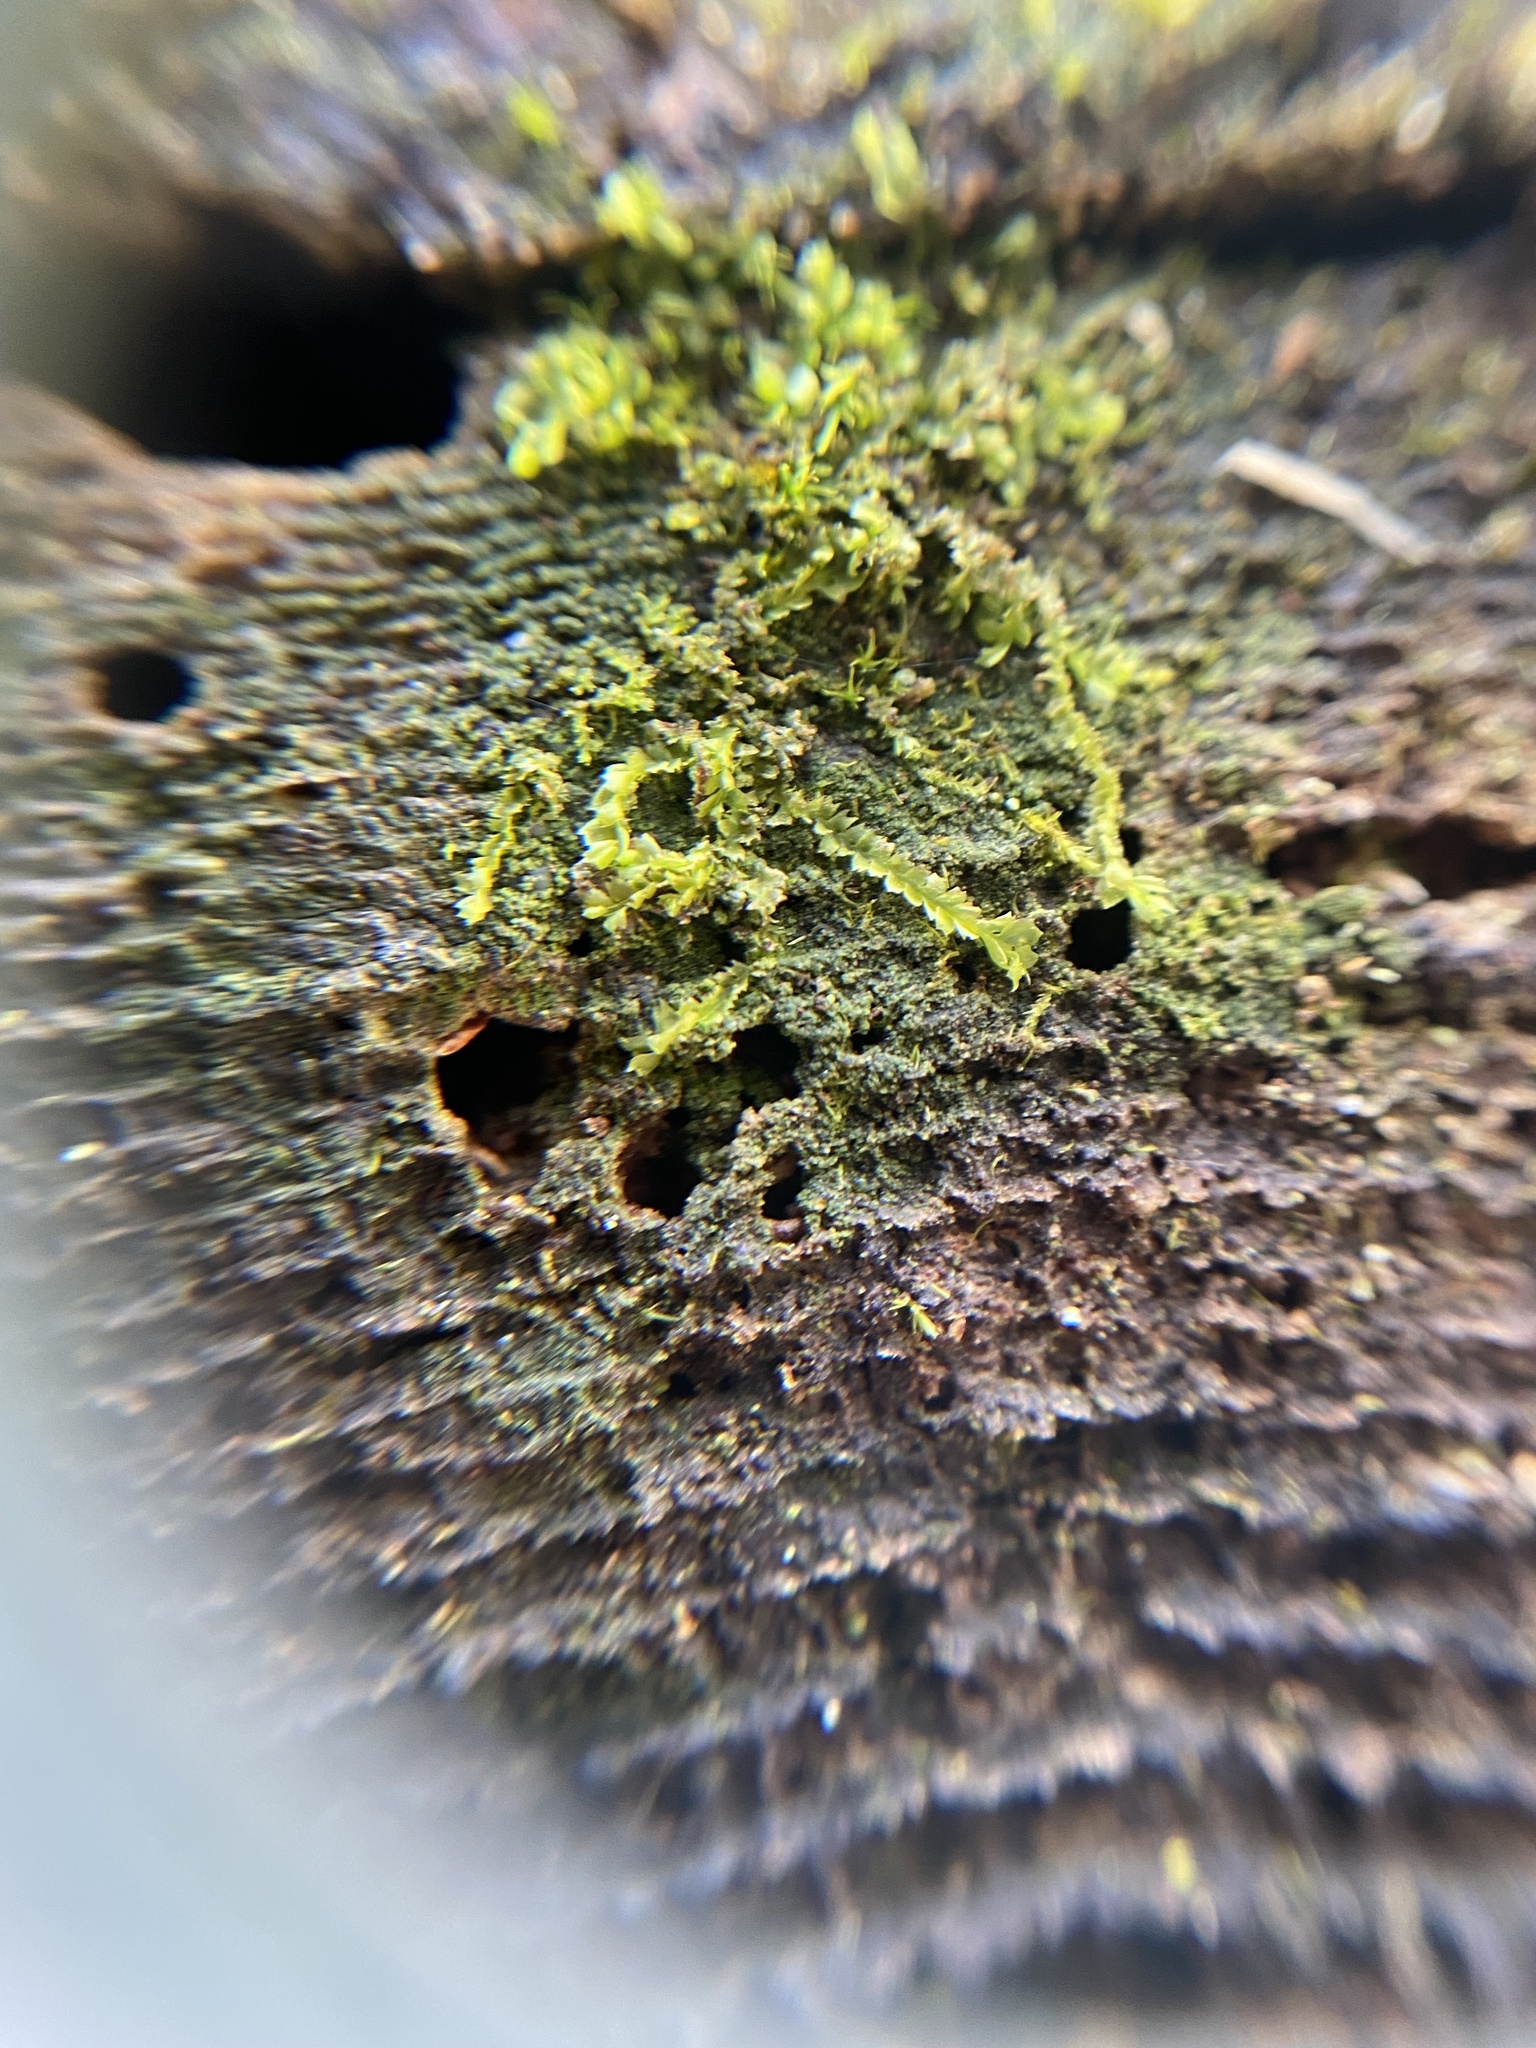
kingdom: Plantae
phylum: Marchantiophyta
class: Jungermanniopsida
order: Jungermanniales
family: Lophocoleaceae
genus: Lophocolea
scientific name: Lophocolea heterophylla
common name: Variable-leaved crestwort
